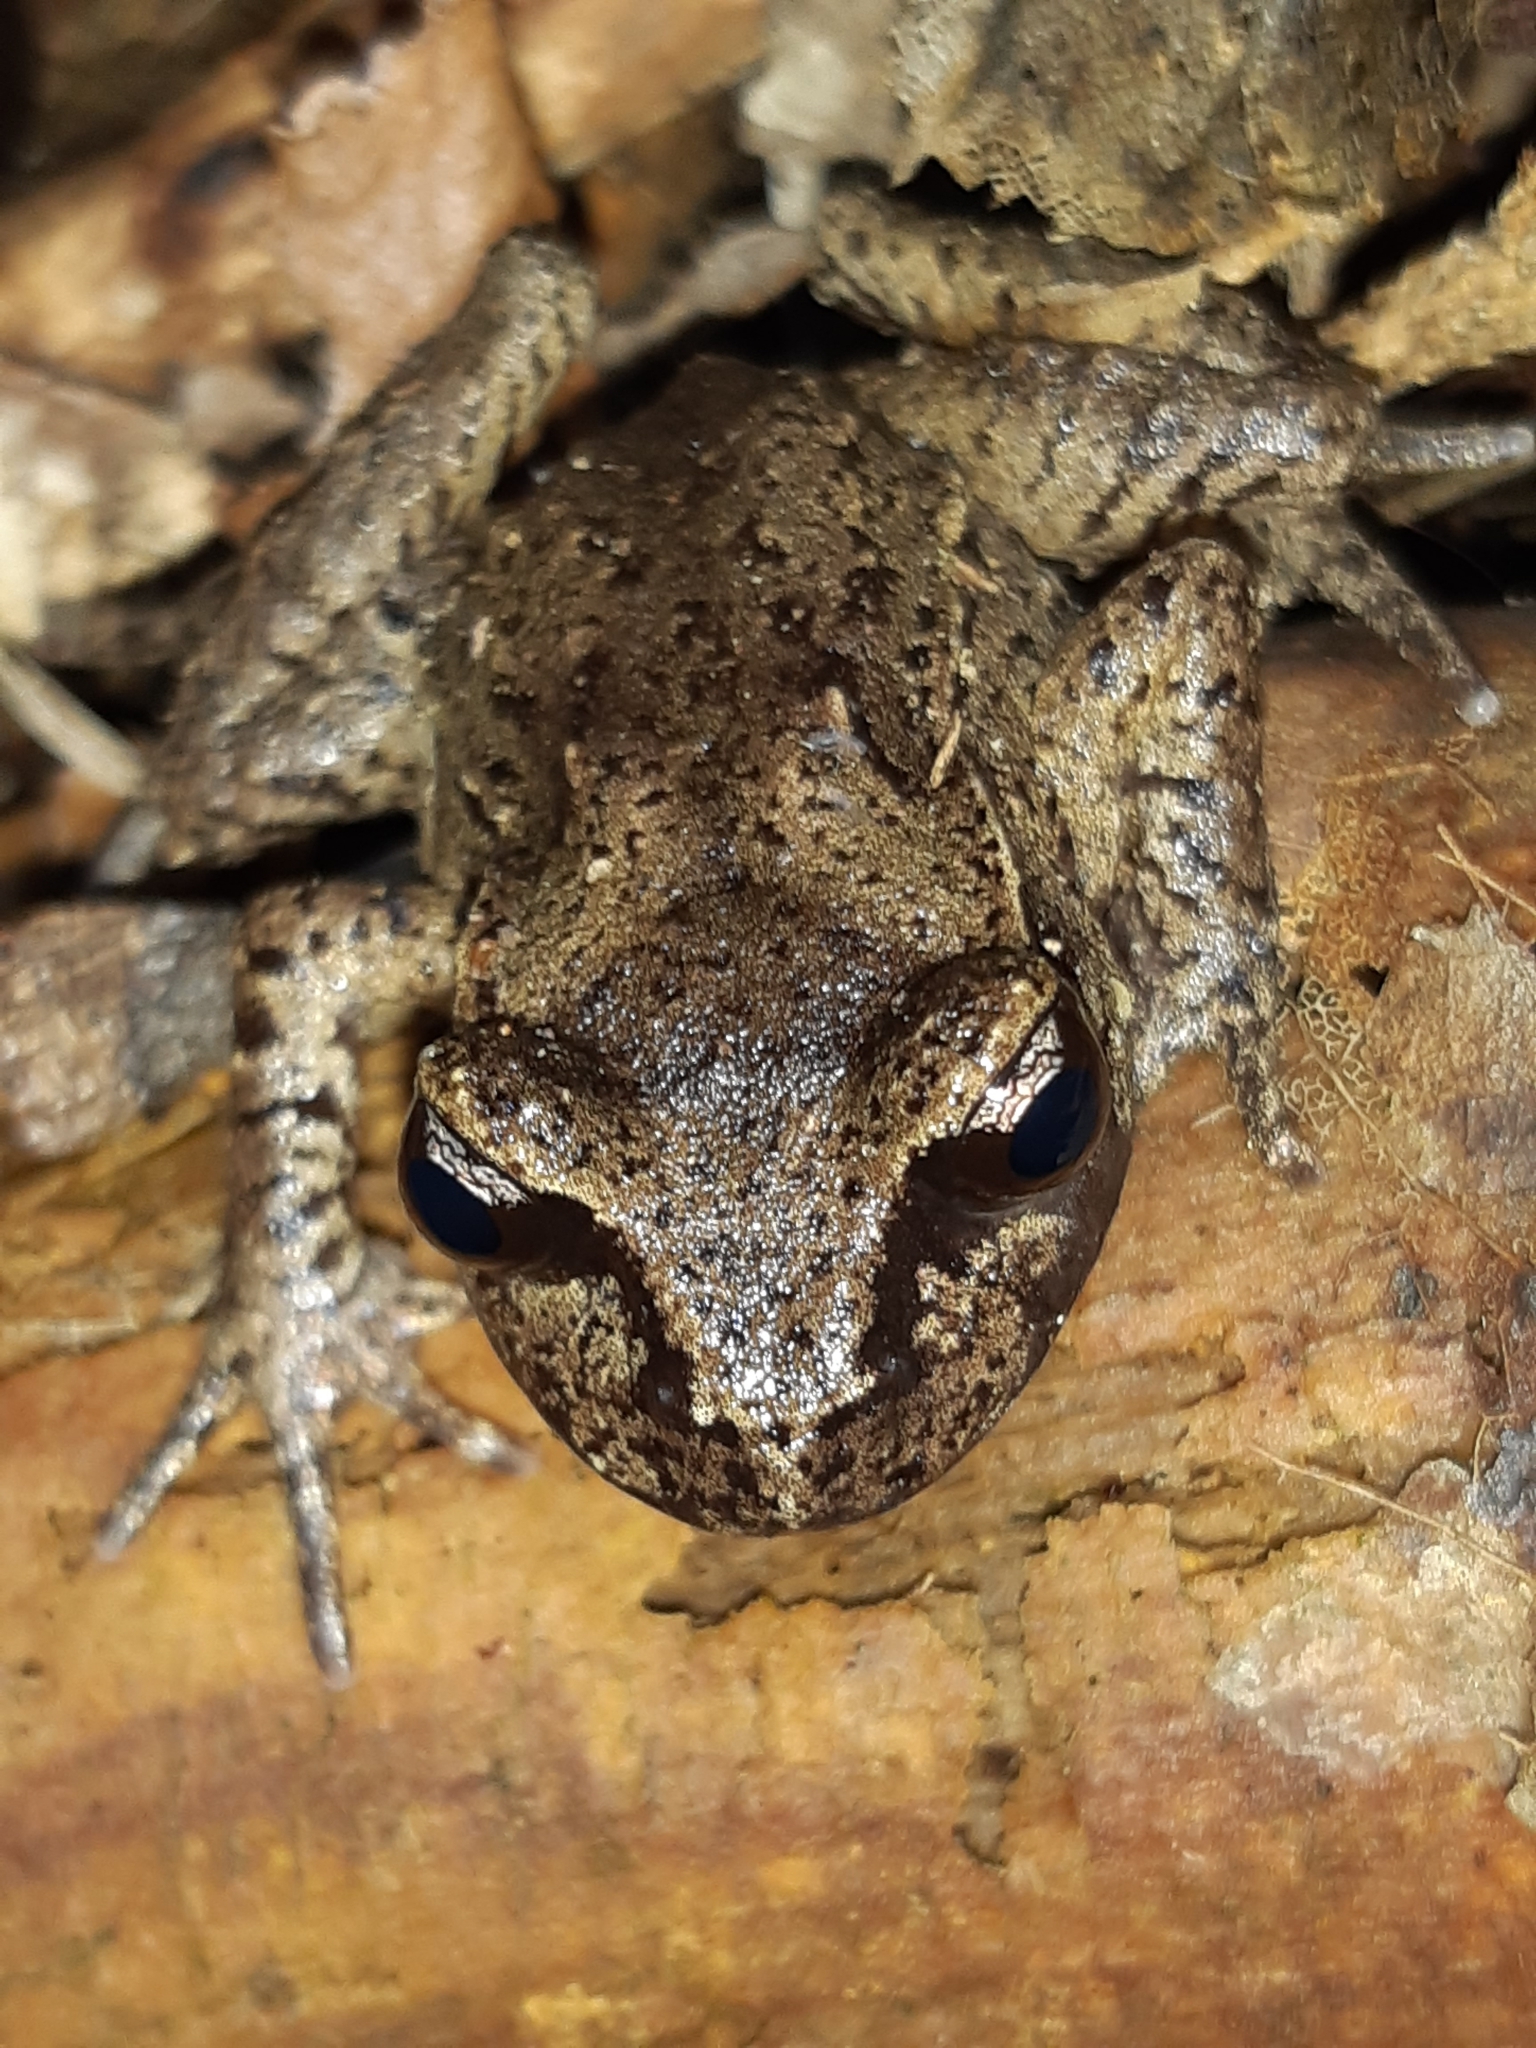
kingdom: Animalia
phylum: Chordata
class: Amphibia
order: Anura
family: Leiopelmatidae
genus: Leiopelma
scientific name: Leiopelma hamiltoni
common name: Hamiltons frog
